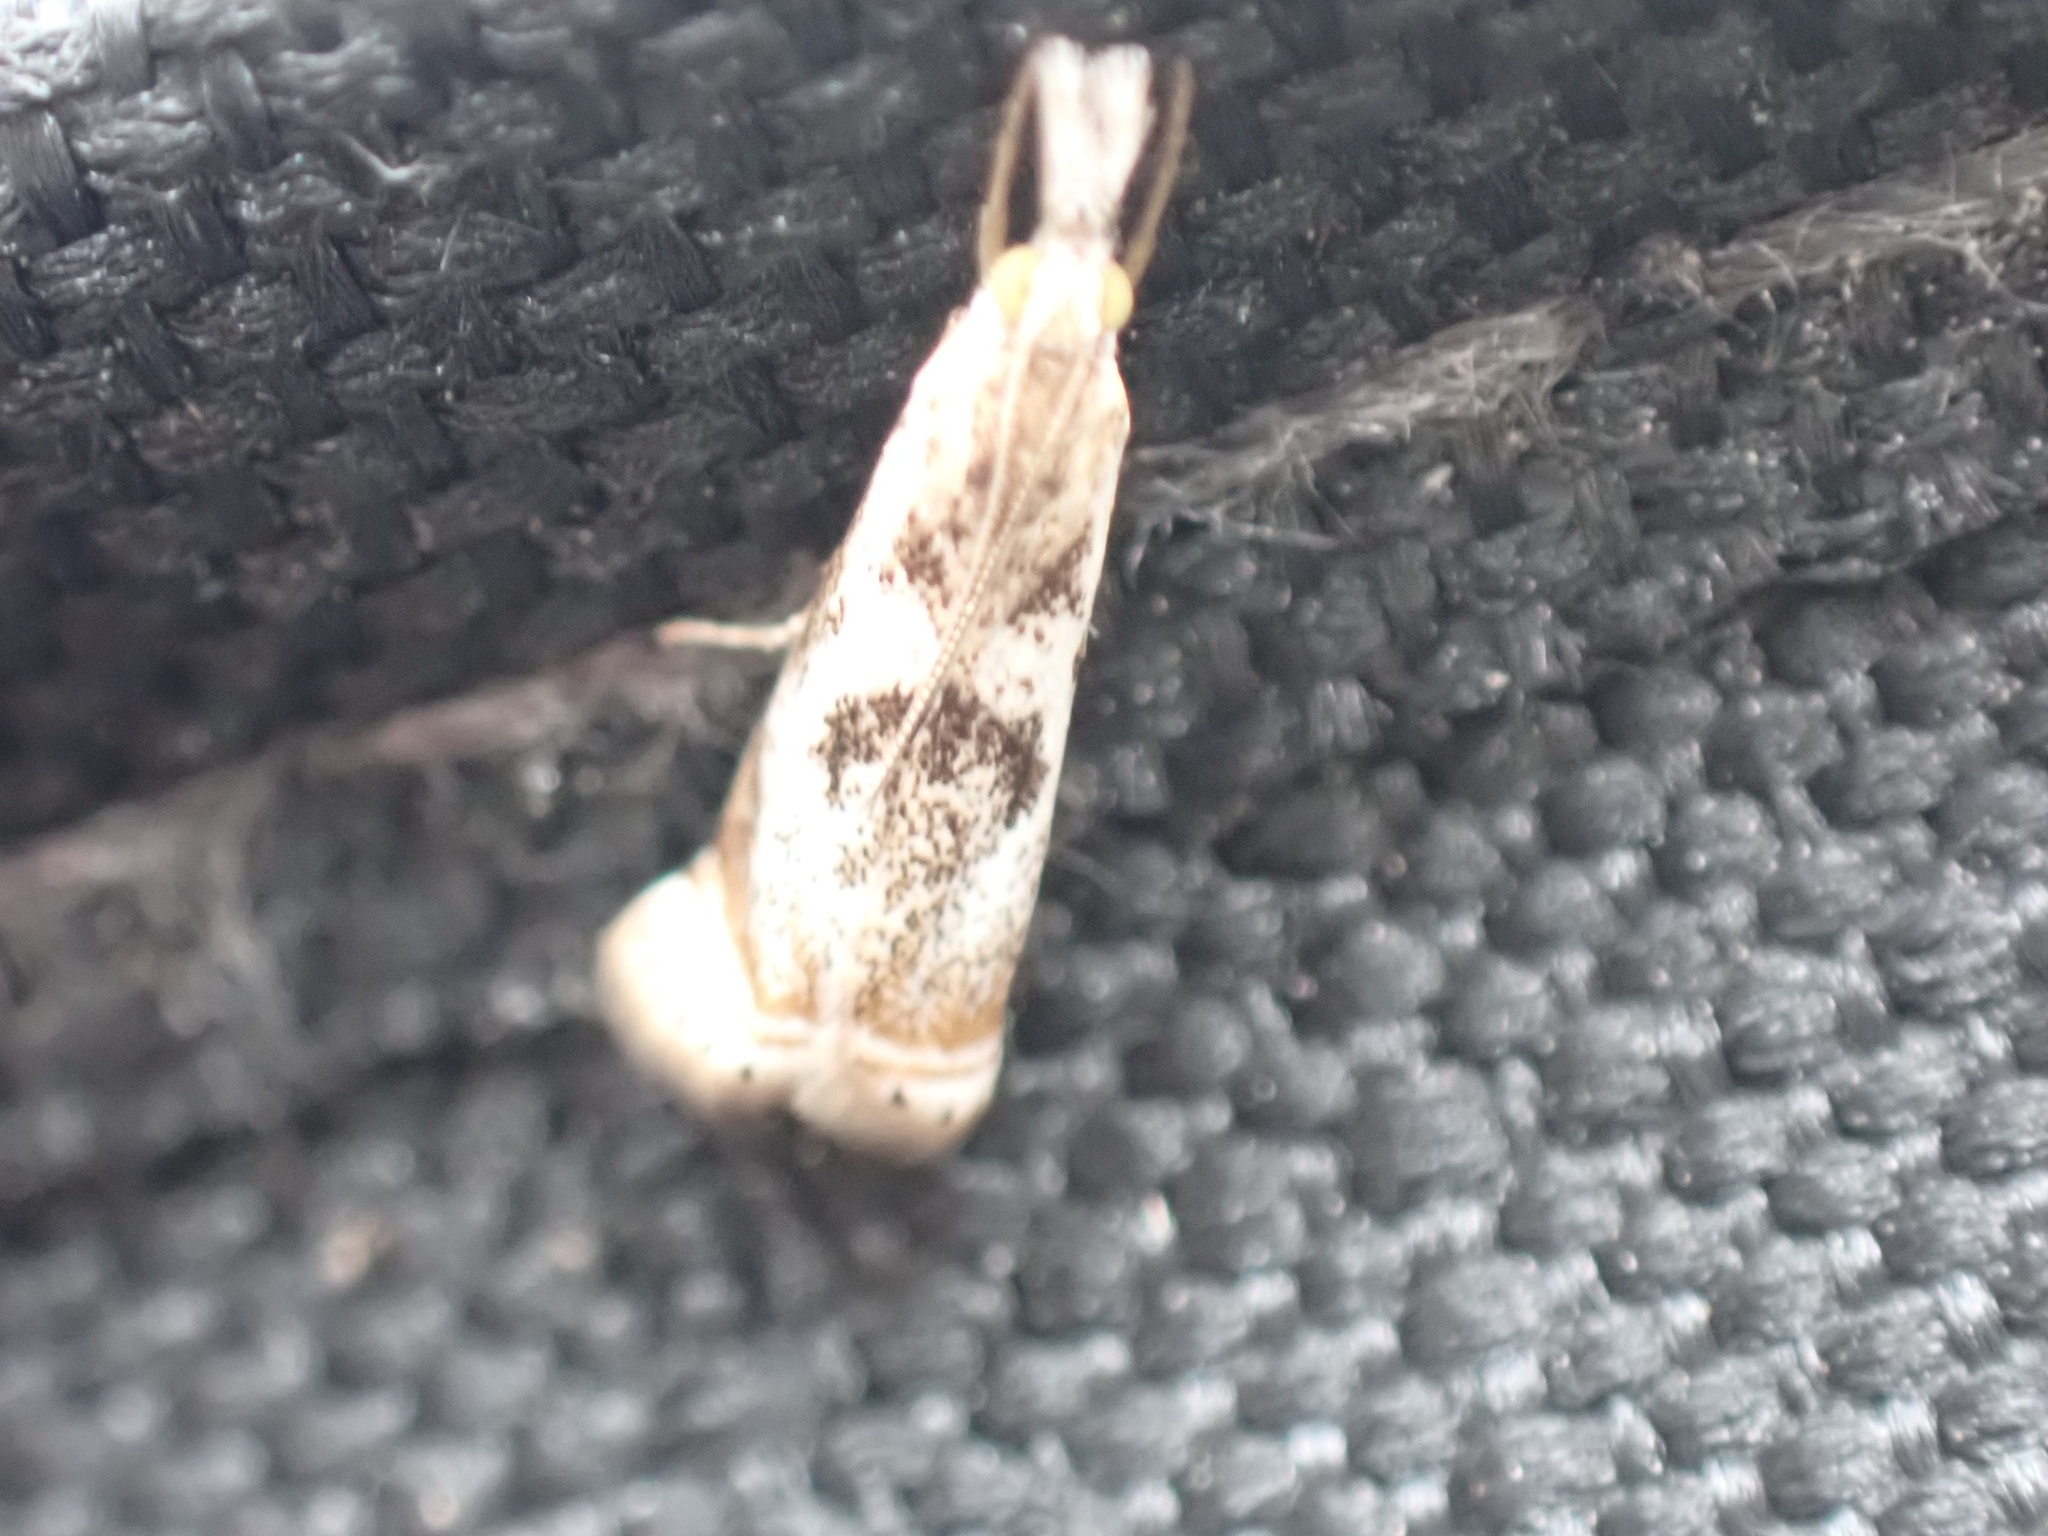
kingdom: Animalia
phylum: Arthropoda
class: Insecta
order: Lepidoptera
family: Crambidae
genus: Microcrambus
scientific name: Microcrambus elegans
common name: Elegant grass-veneer
